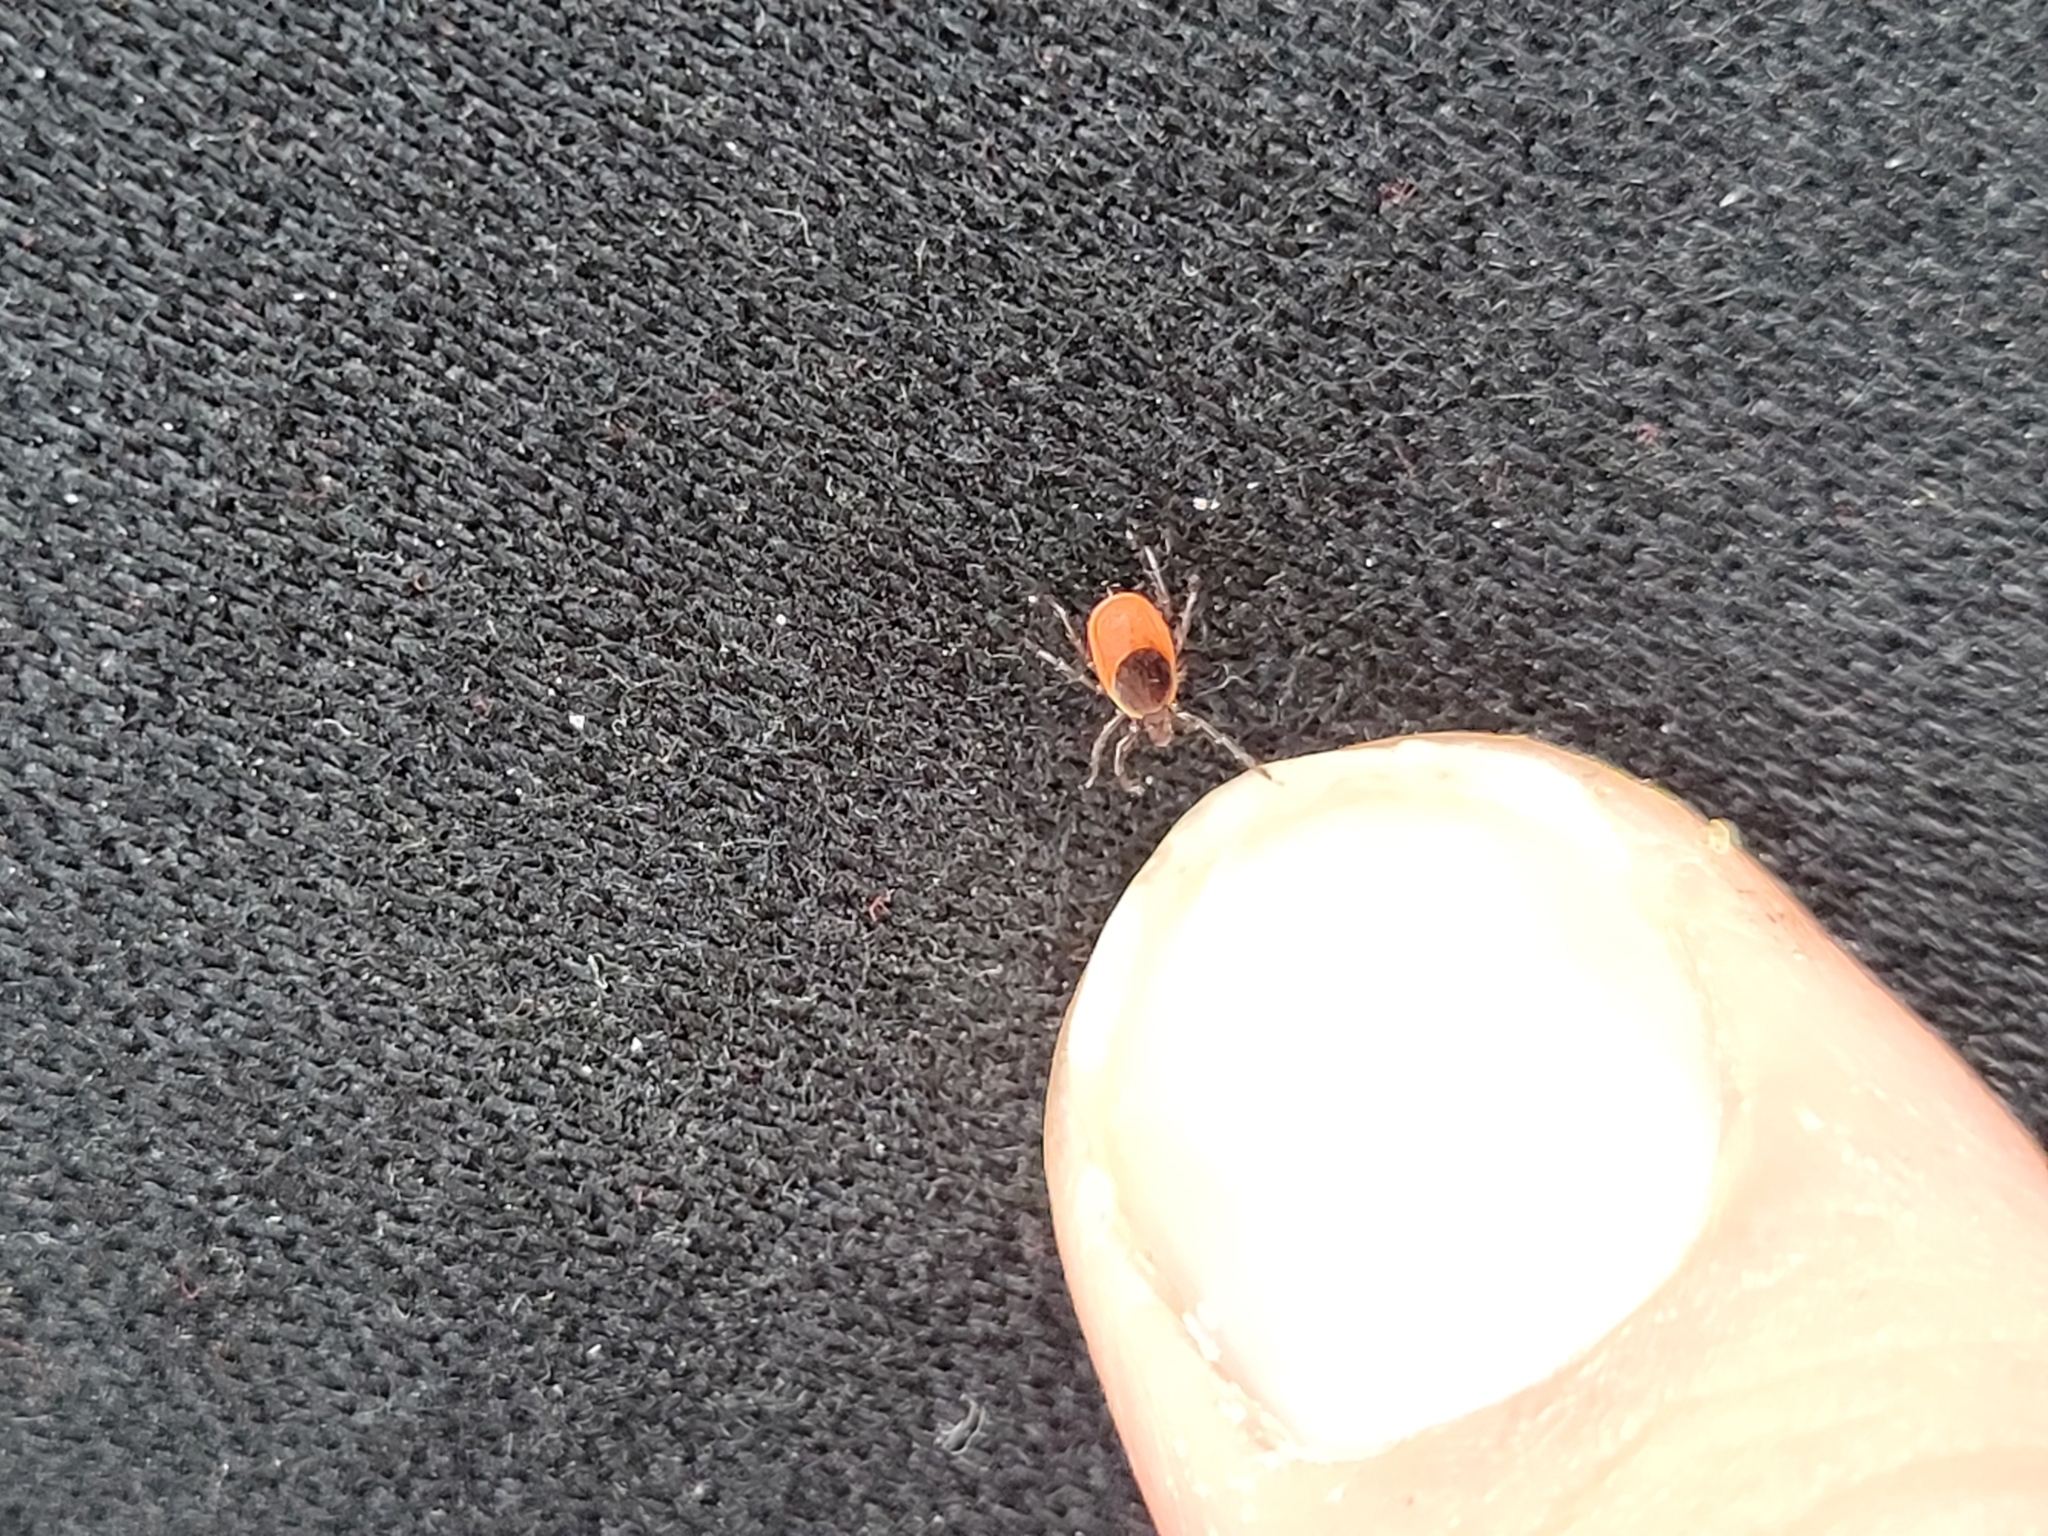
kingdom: Animalia
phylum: Arthropoda
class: Arachnida
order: Ixodida
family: Ixodidae
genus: Ixodes
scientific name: Ixodes scapularis
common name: Black legged tick
